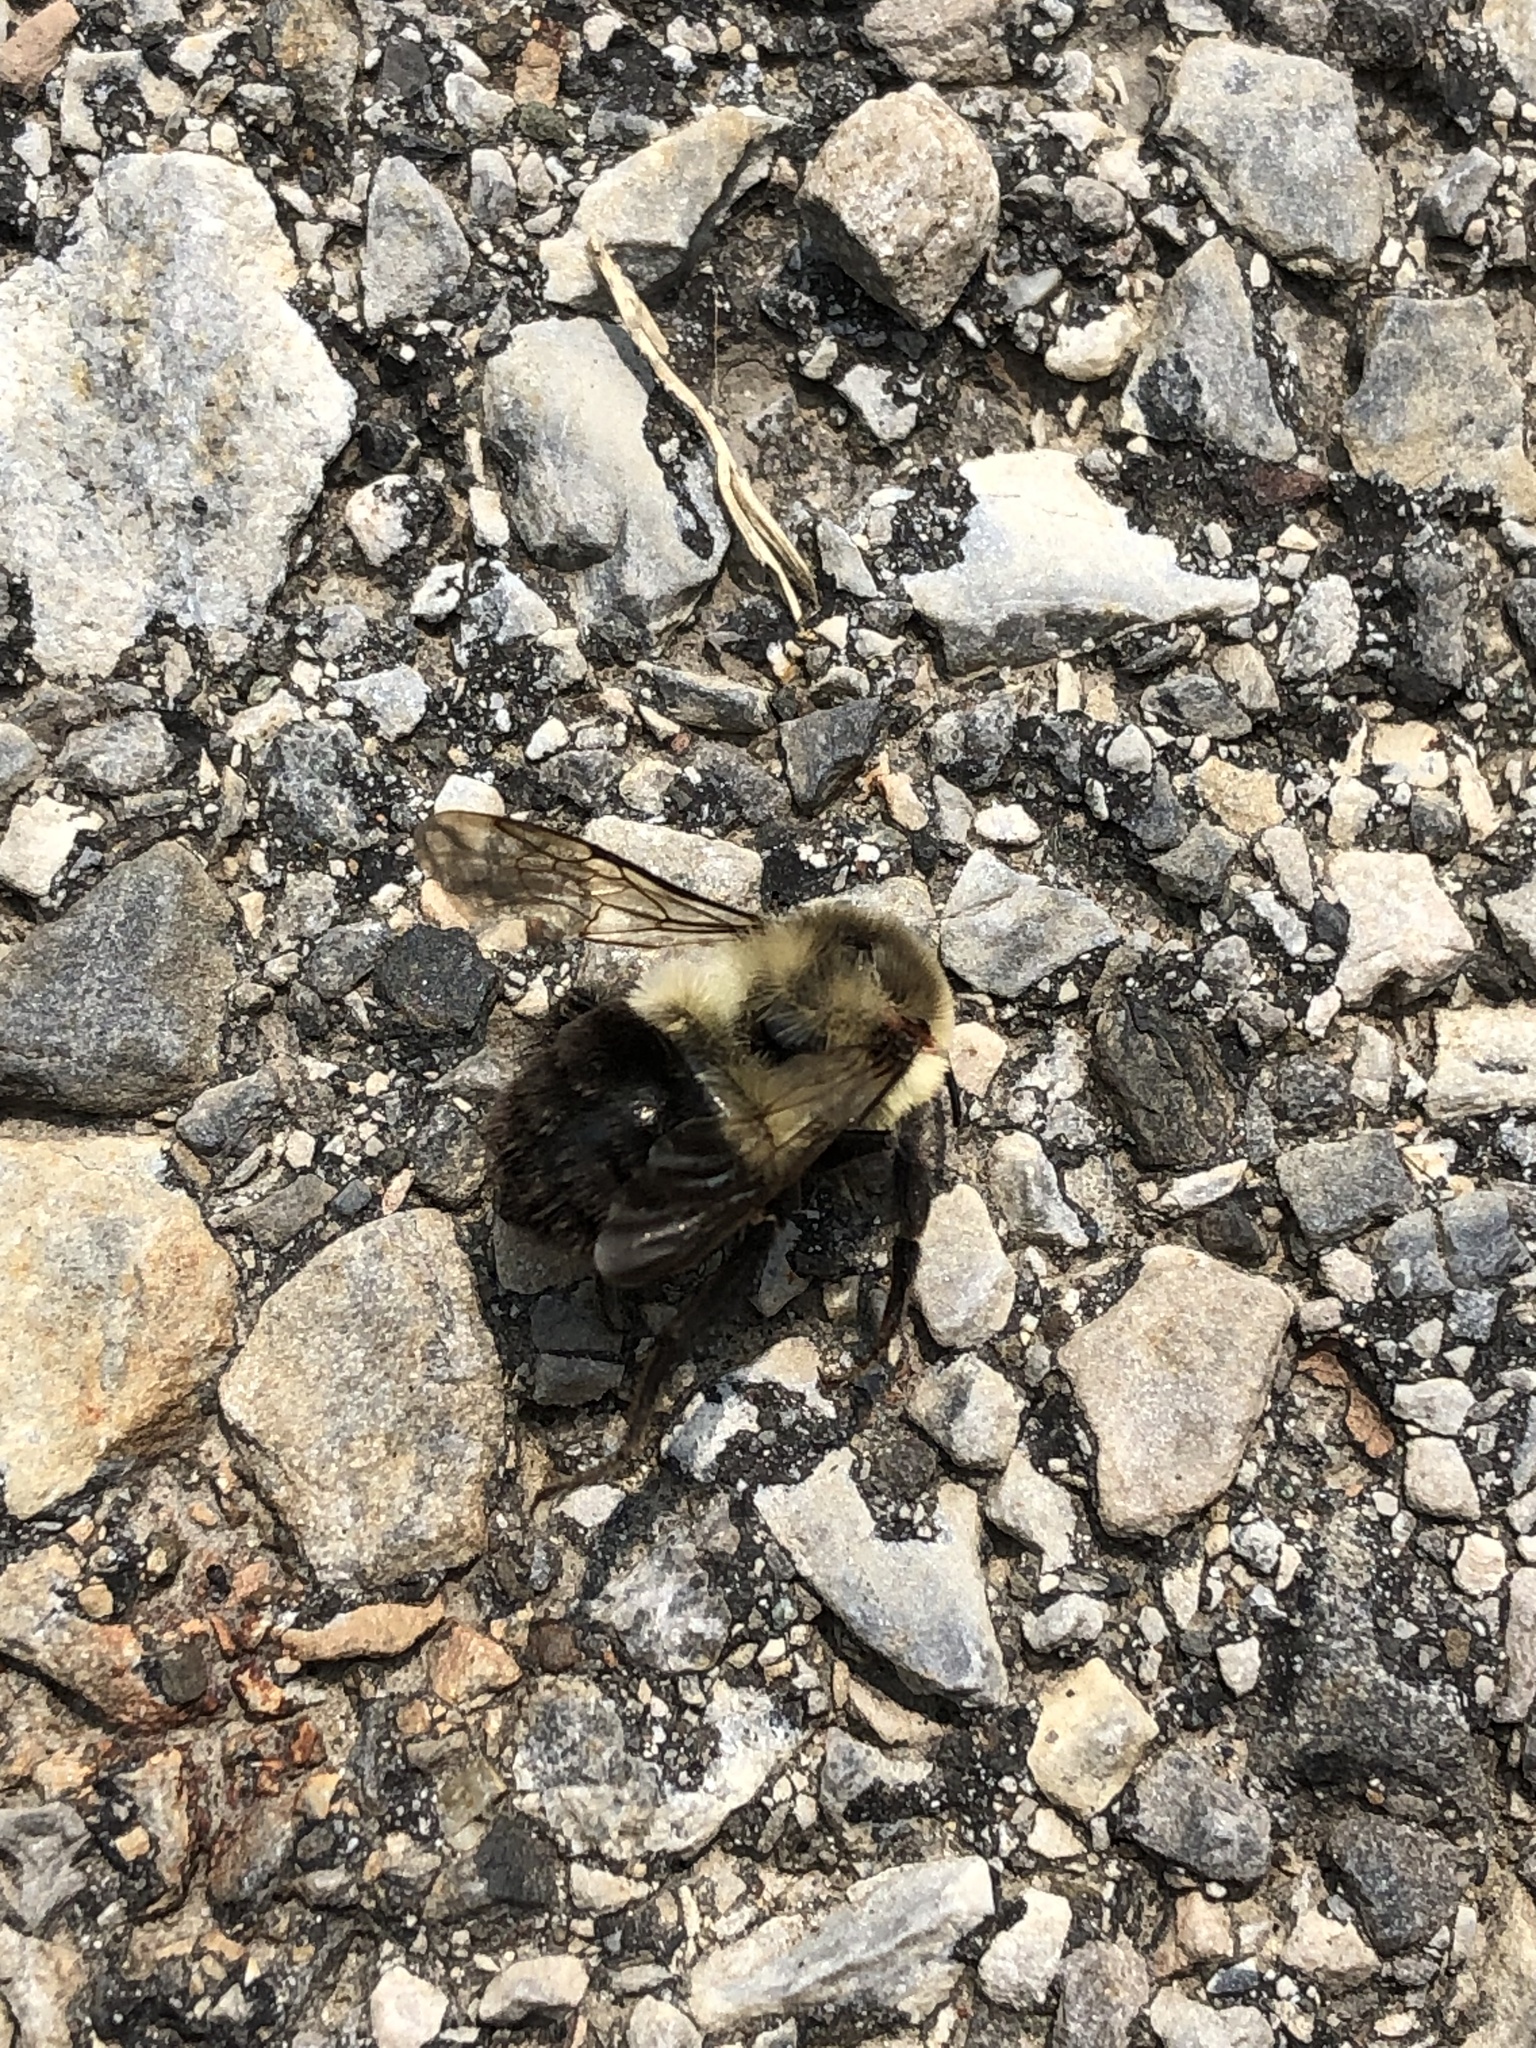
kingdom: Animalia
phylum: Arthropoda
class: Insecta
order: Hymenoptera
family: Apidae
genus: Bombus
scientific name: Bombus impatiens
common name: Common eastern bumble bee
